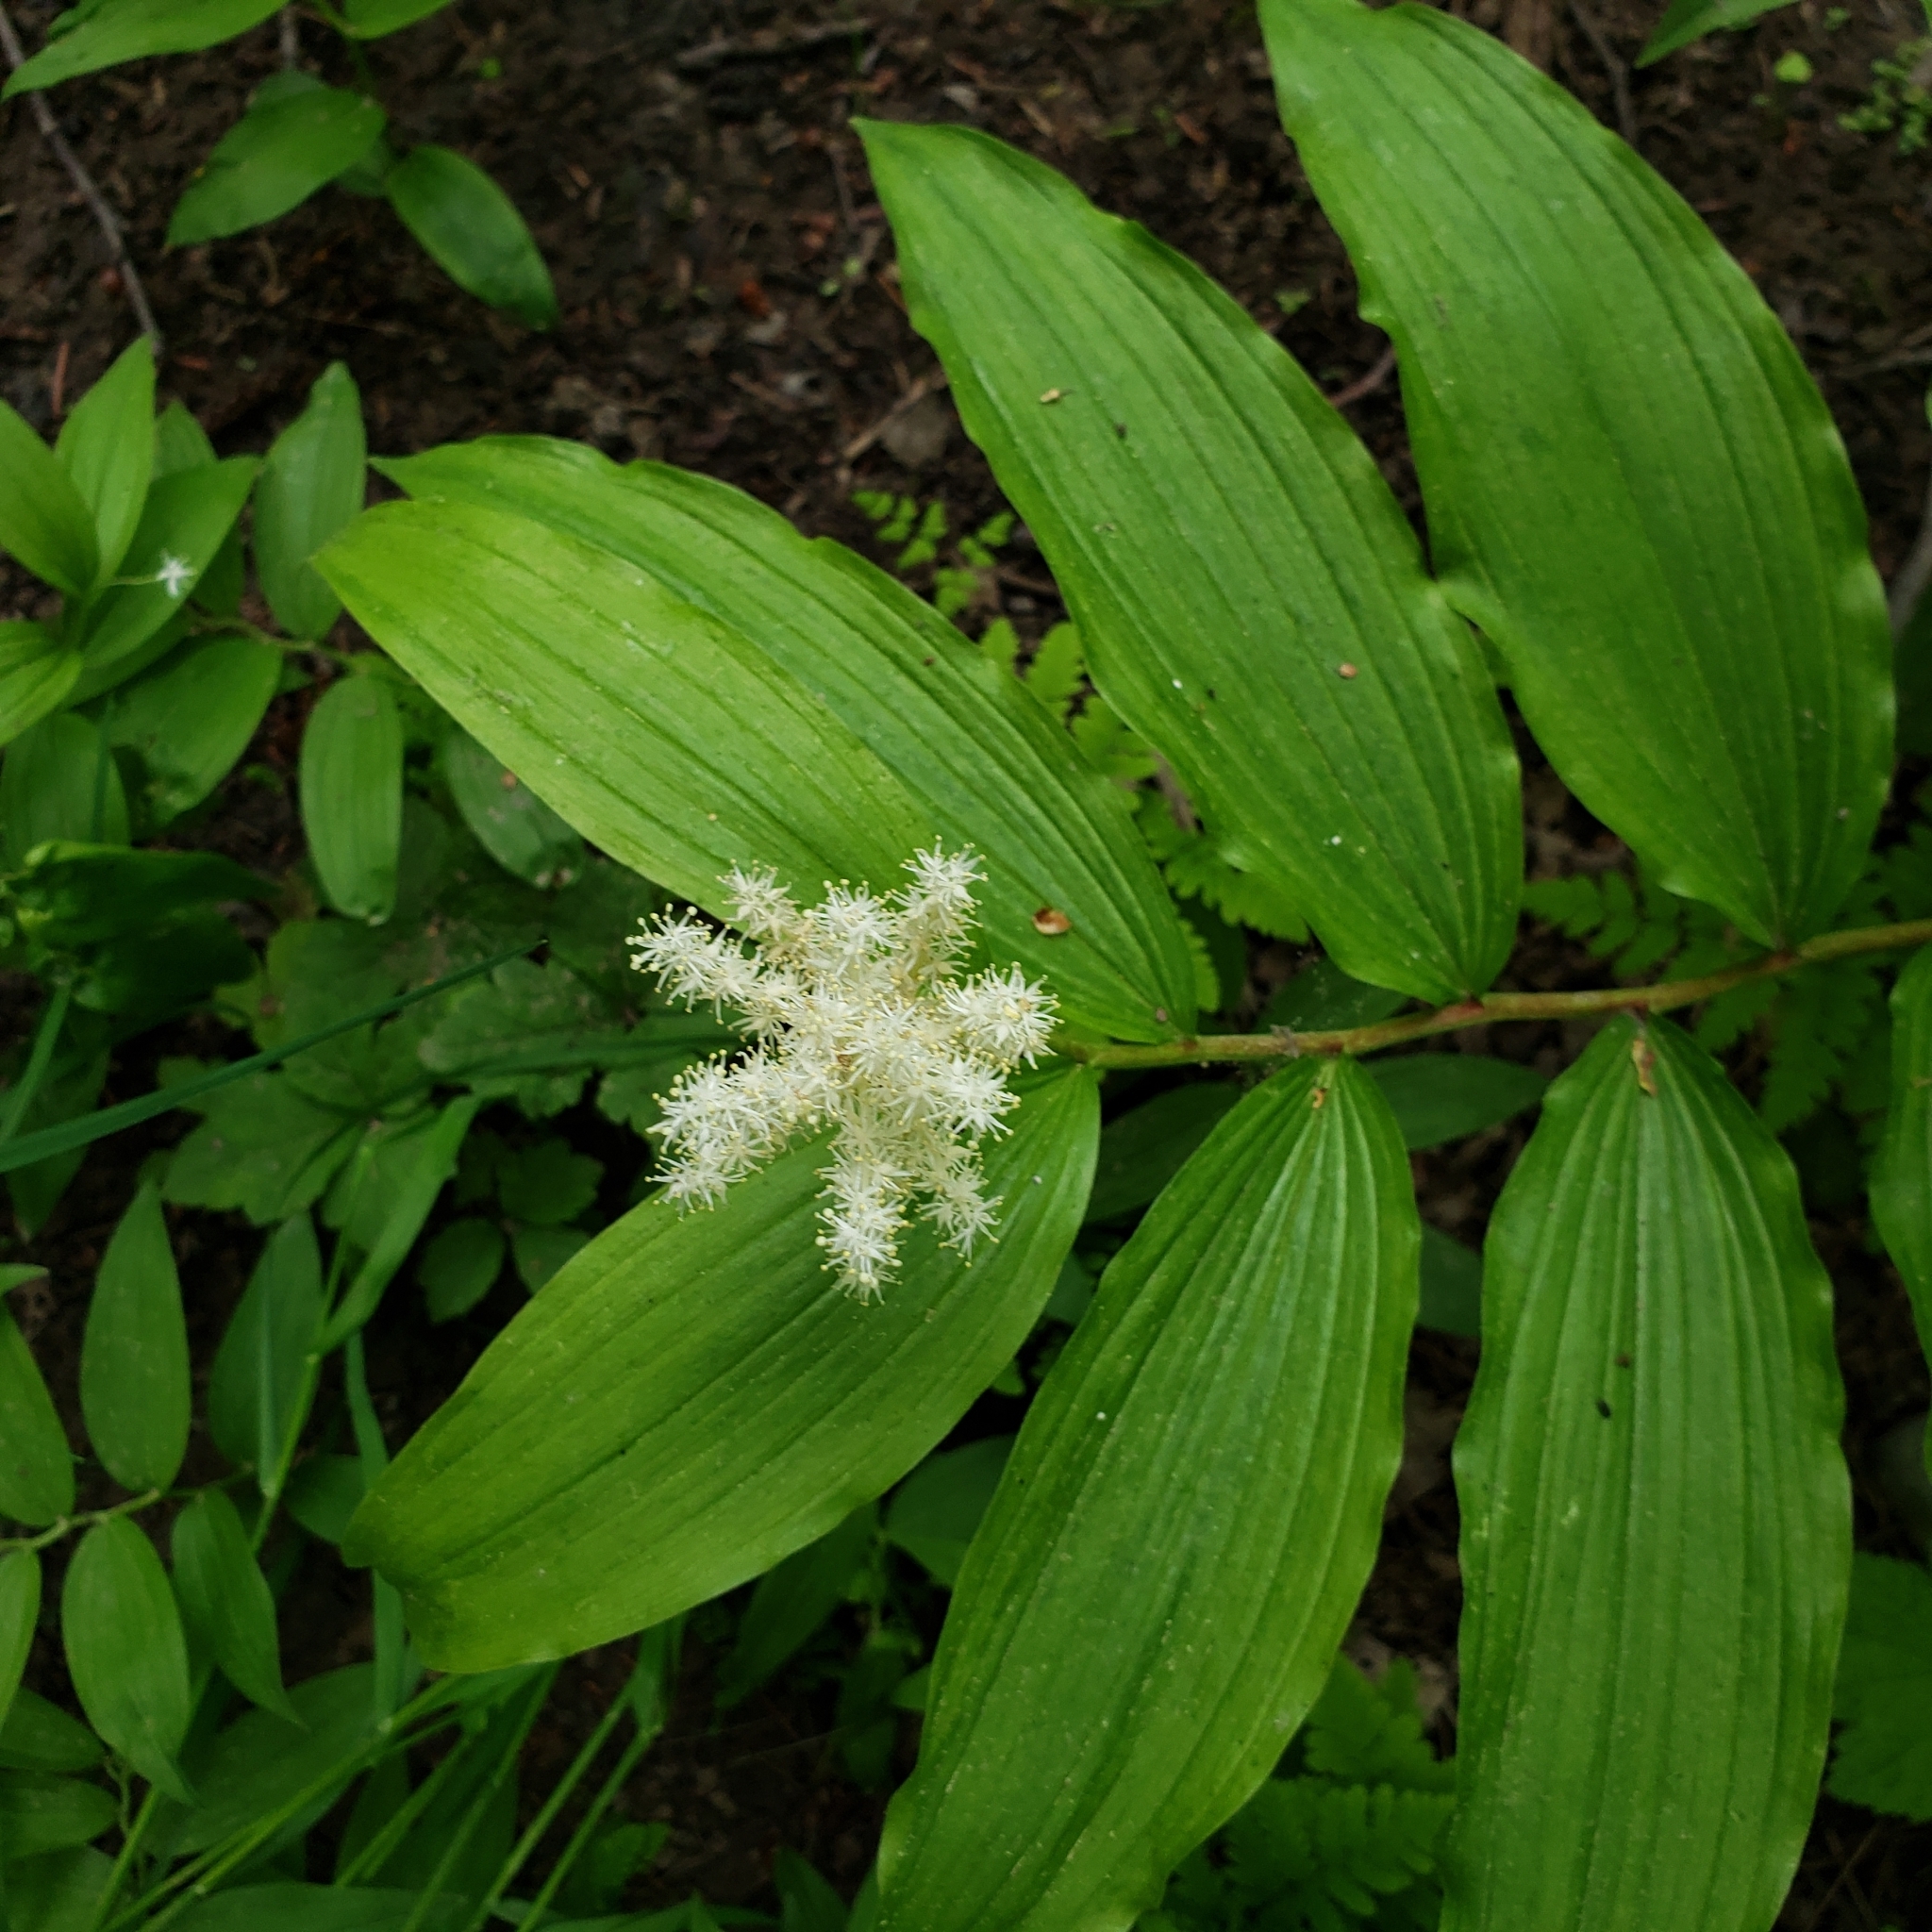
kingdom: Plantae
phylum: Tracheophyta
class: Liliopsida
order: Asparagales
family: Asparagaceae
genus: Maianthemum
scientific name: Maianthemum racemosum
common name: False spikenard
